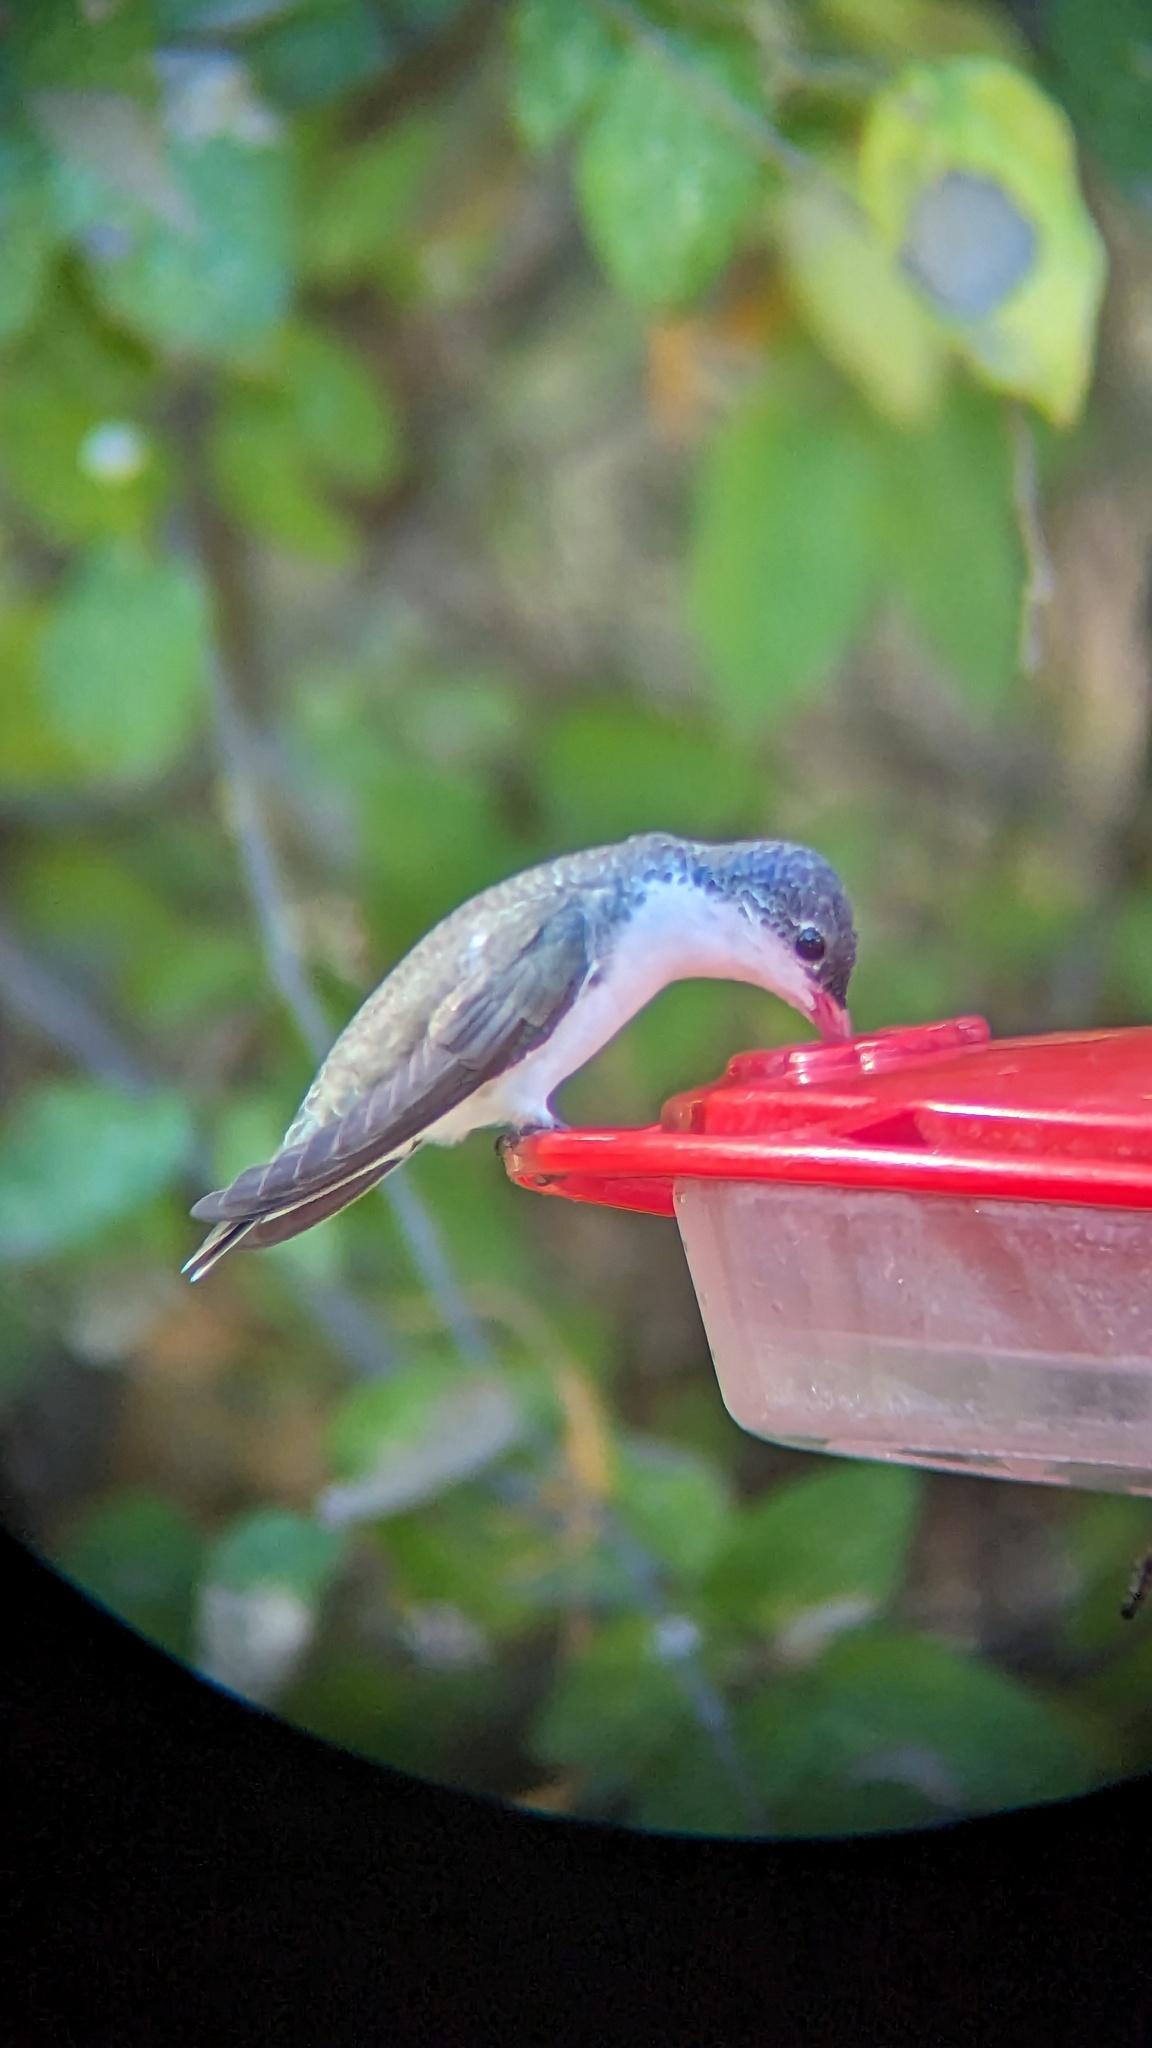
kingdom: Animalia
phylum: Chordata
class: Aves
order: Apodiformes
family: Trochilidae
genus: Leucolia
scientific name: Leucolia violiceps
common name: Violet-crowned hummingbird
